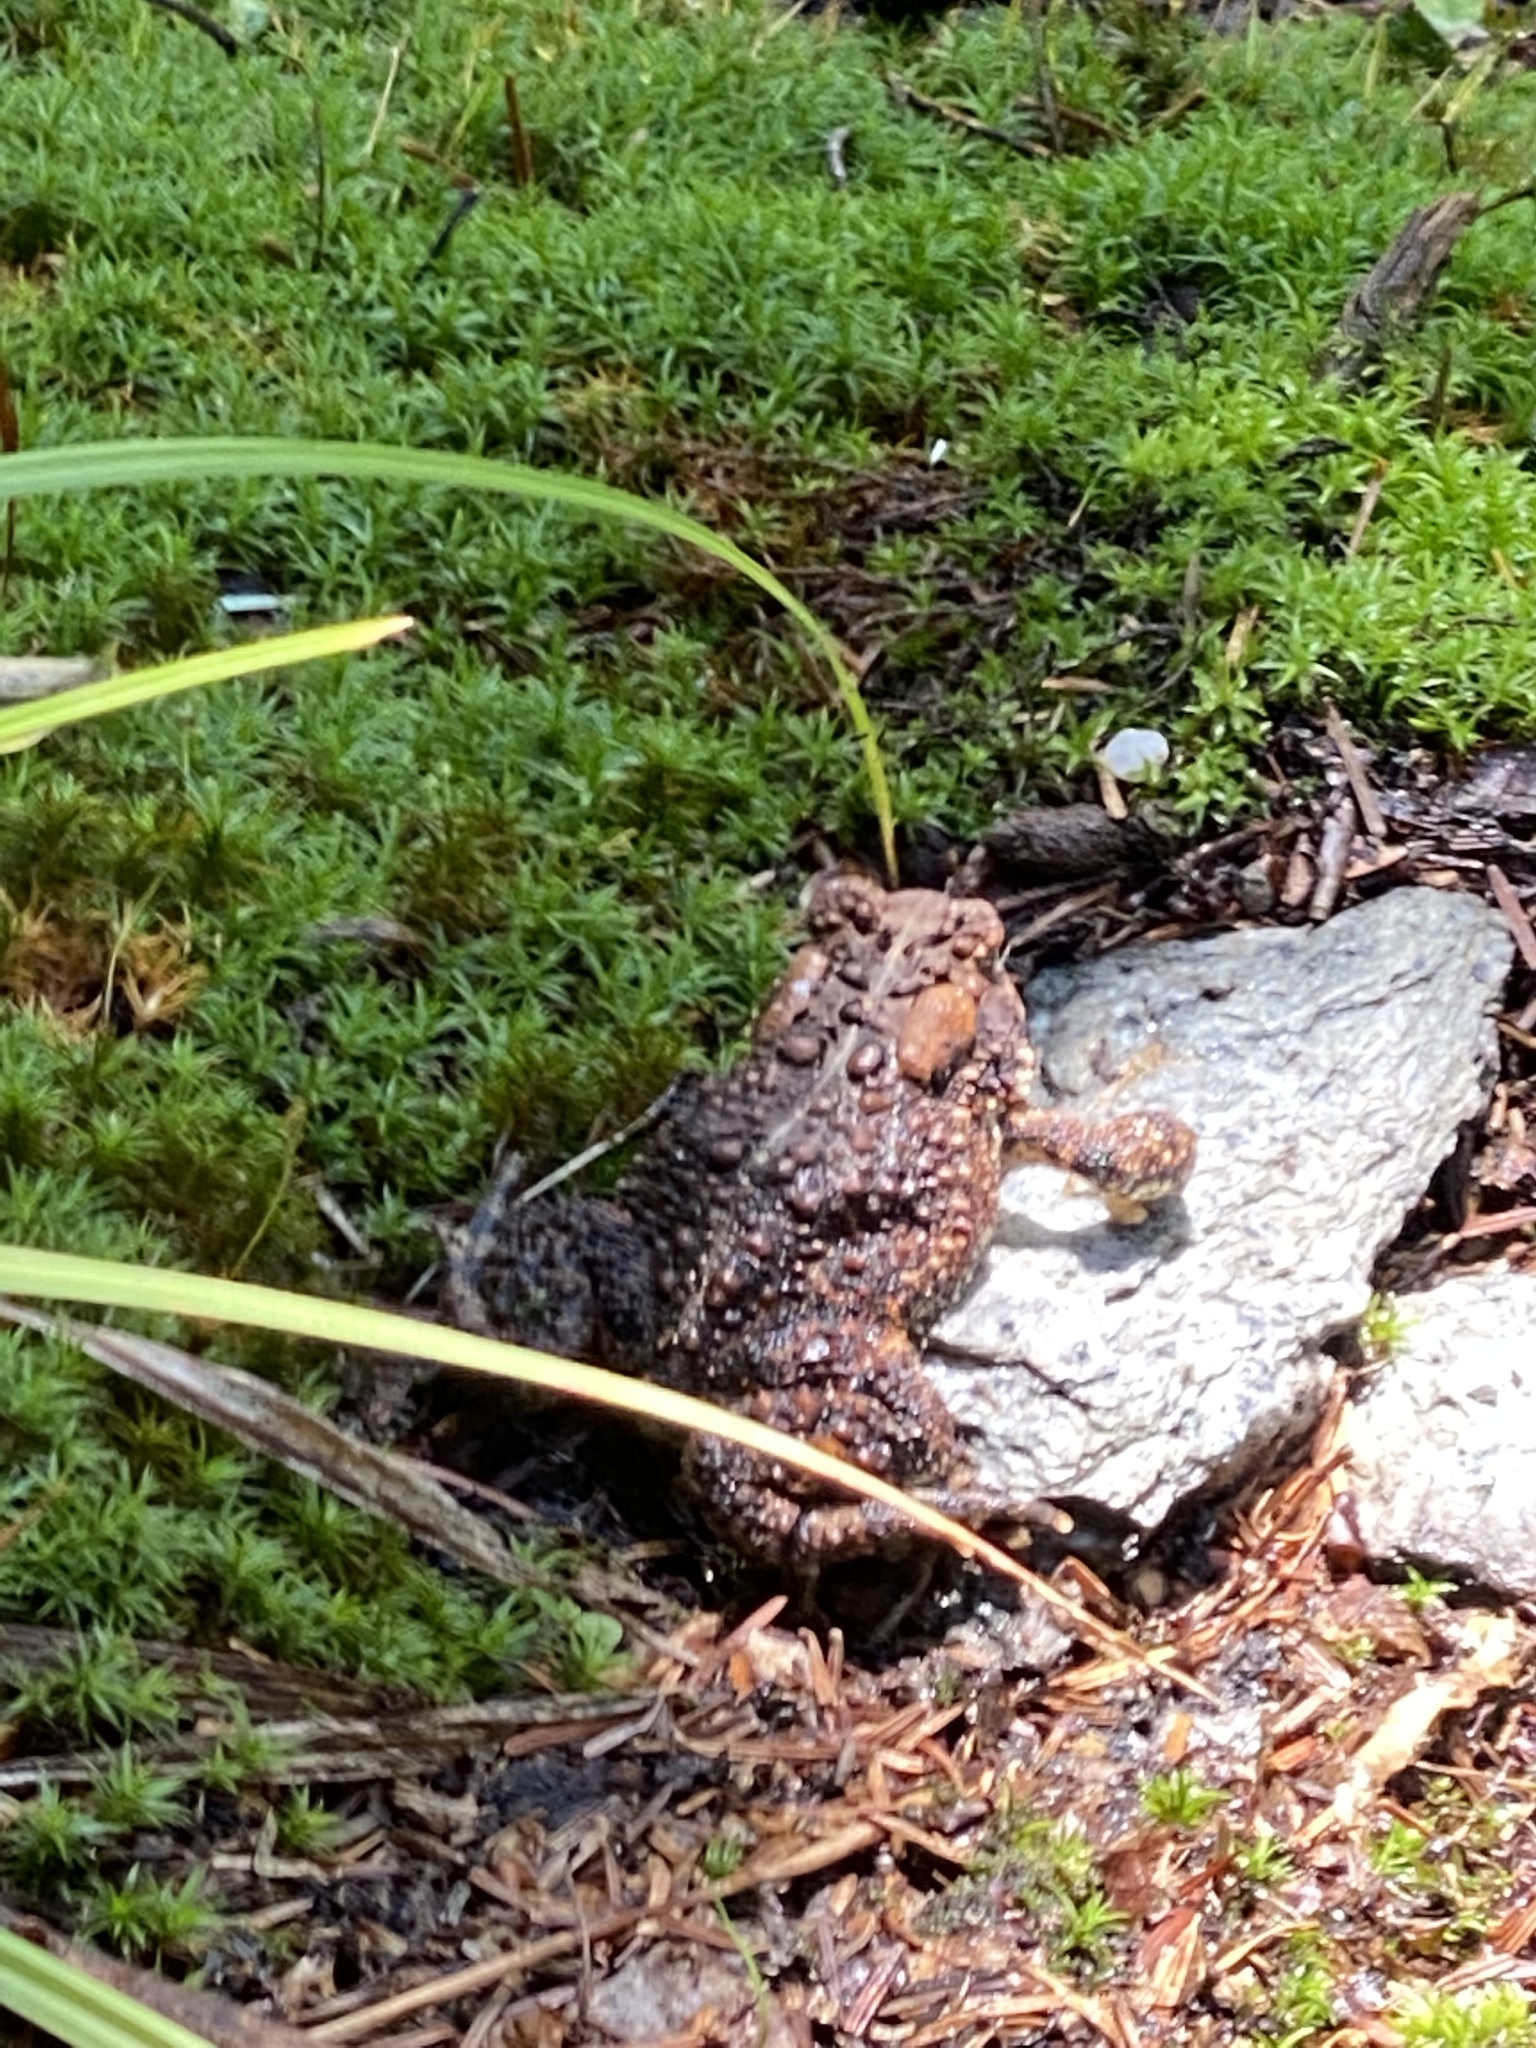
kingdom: Animalia
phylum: Chordata
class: Amphibia
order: Anura
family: Bufonidae
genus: Anaxyrus
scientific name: Anaxyrus americanus
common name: American toad
